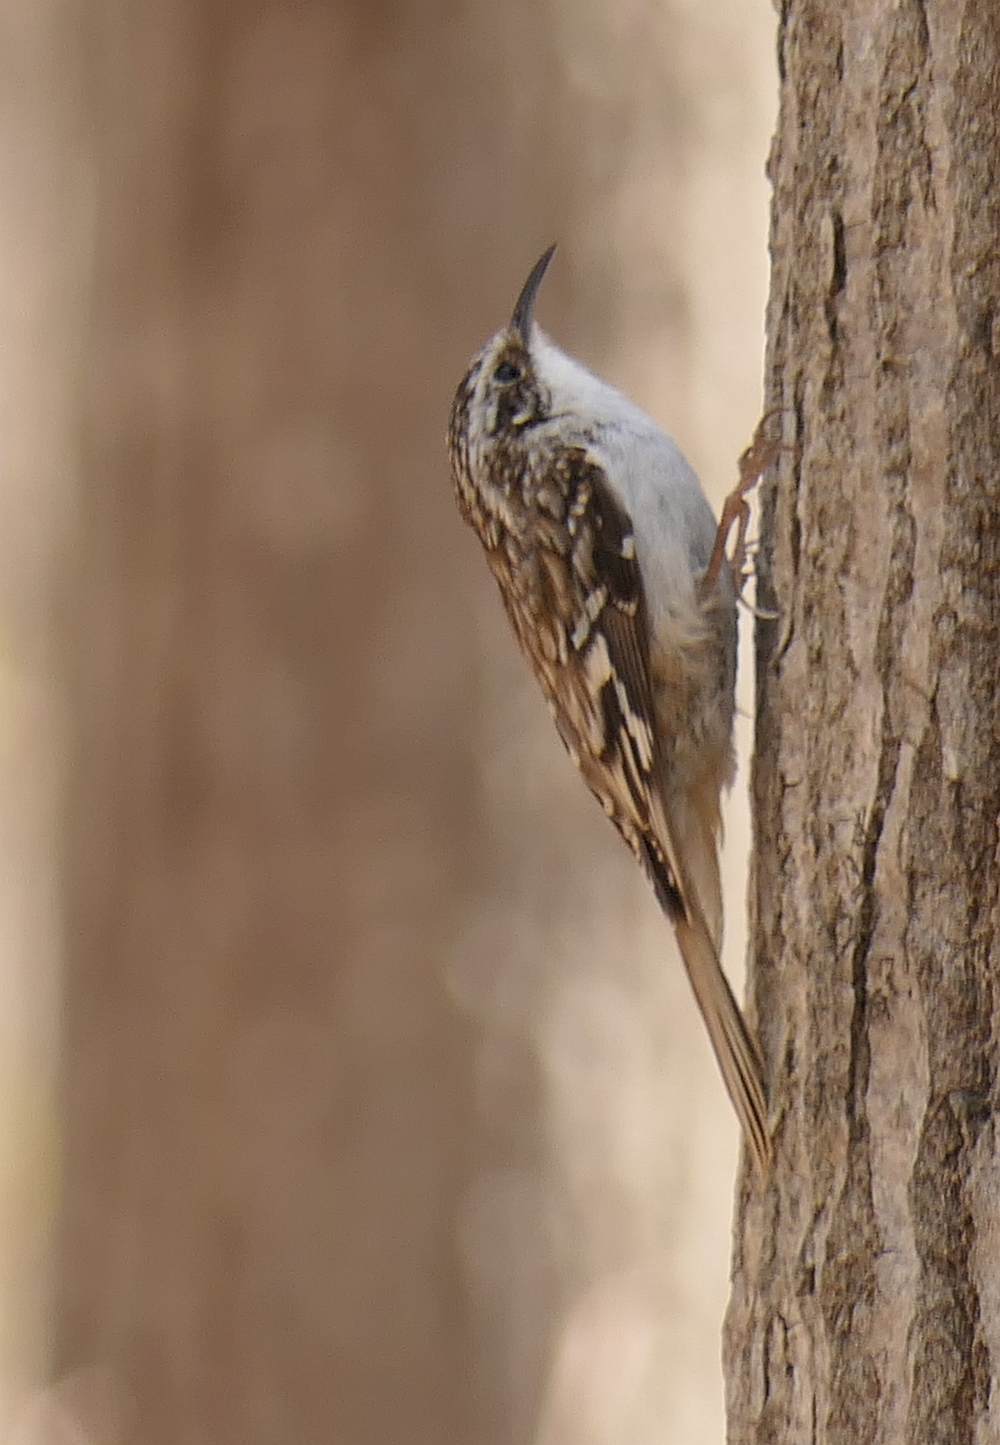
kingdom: Animalia
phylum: Chordata
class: Aves
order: Passeriformes
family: Certhiidae
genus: Certhia
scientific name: Certhia americana
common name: Brown creeper
